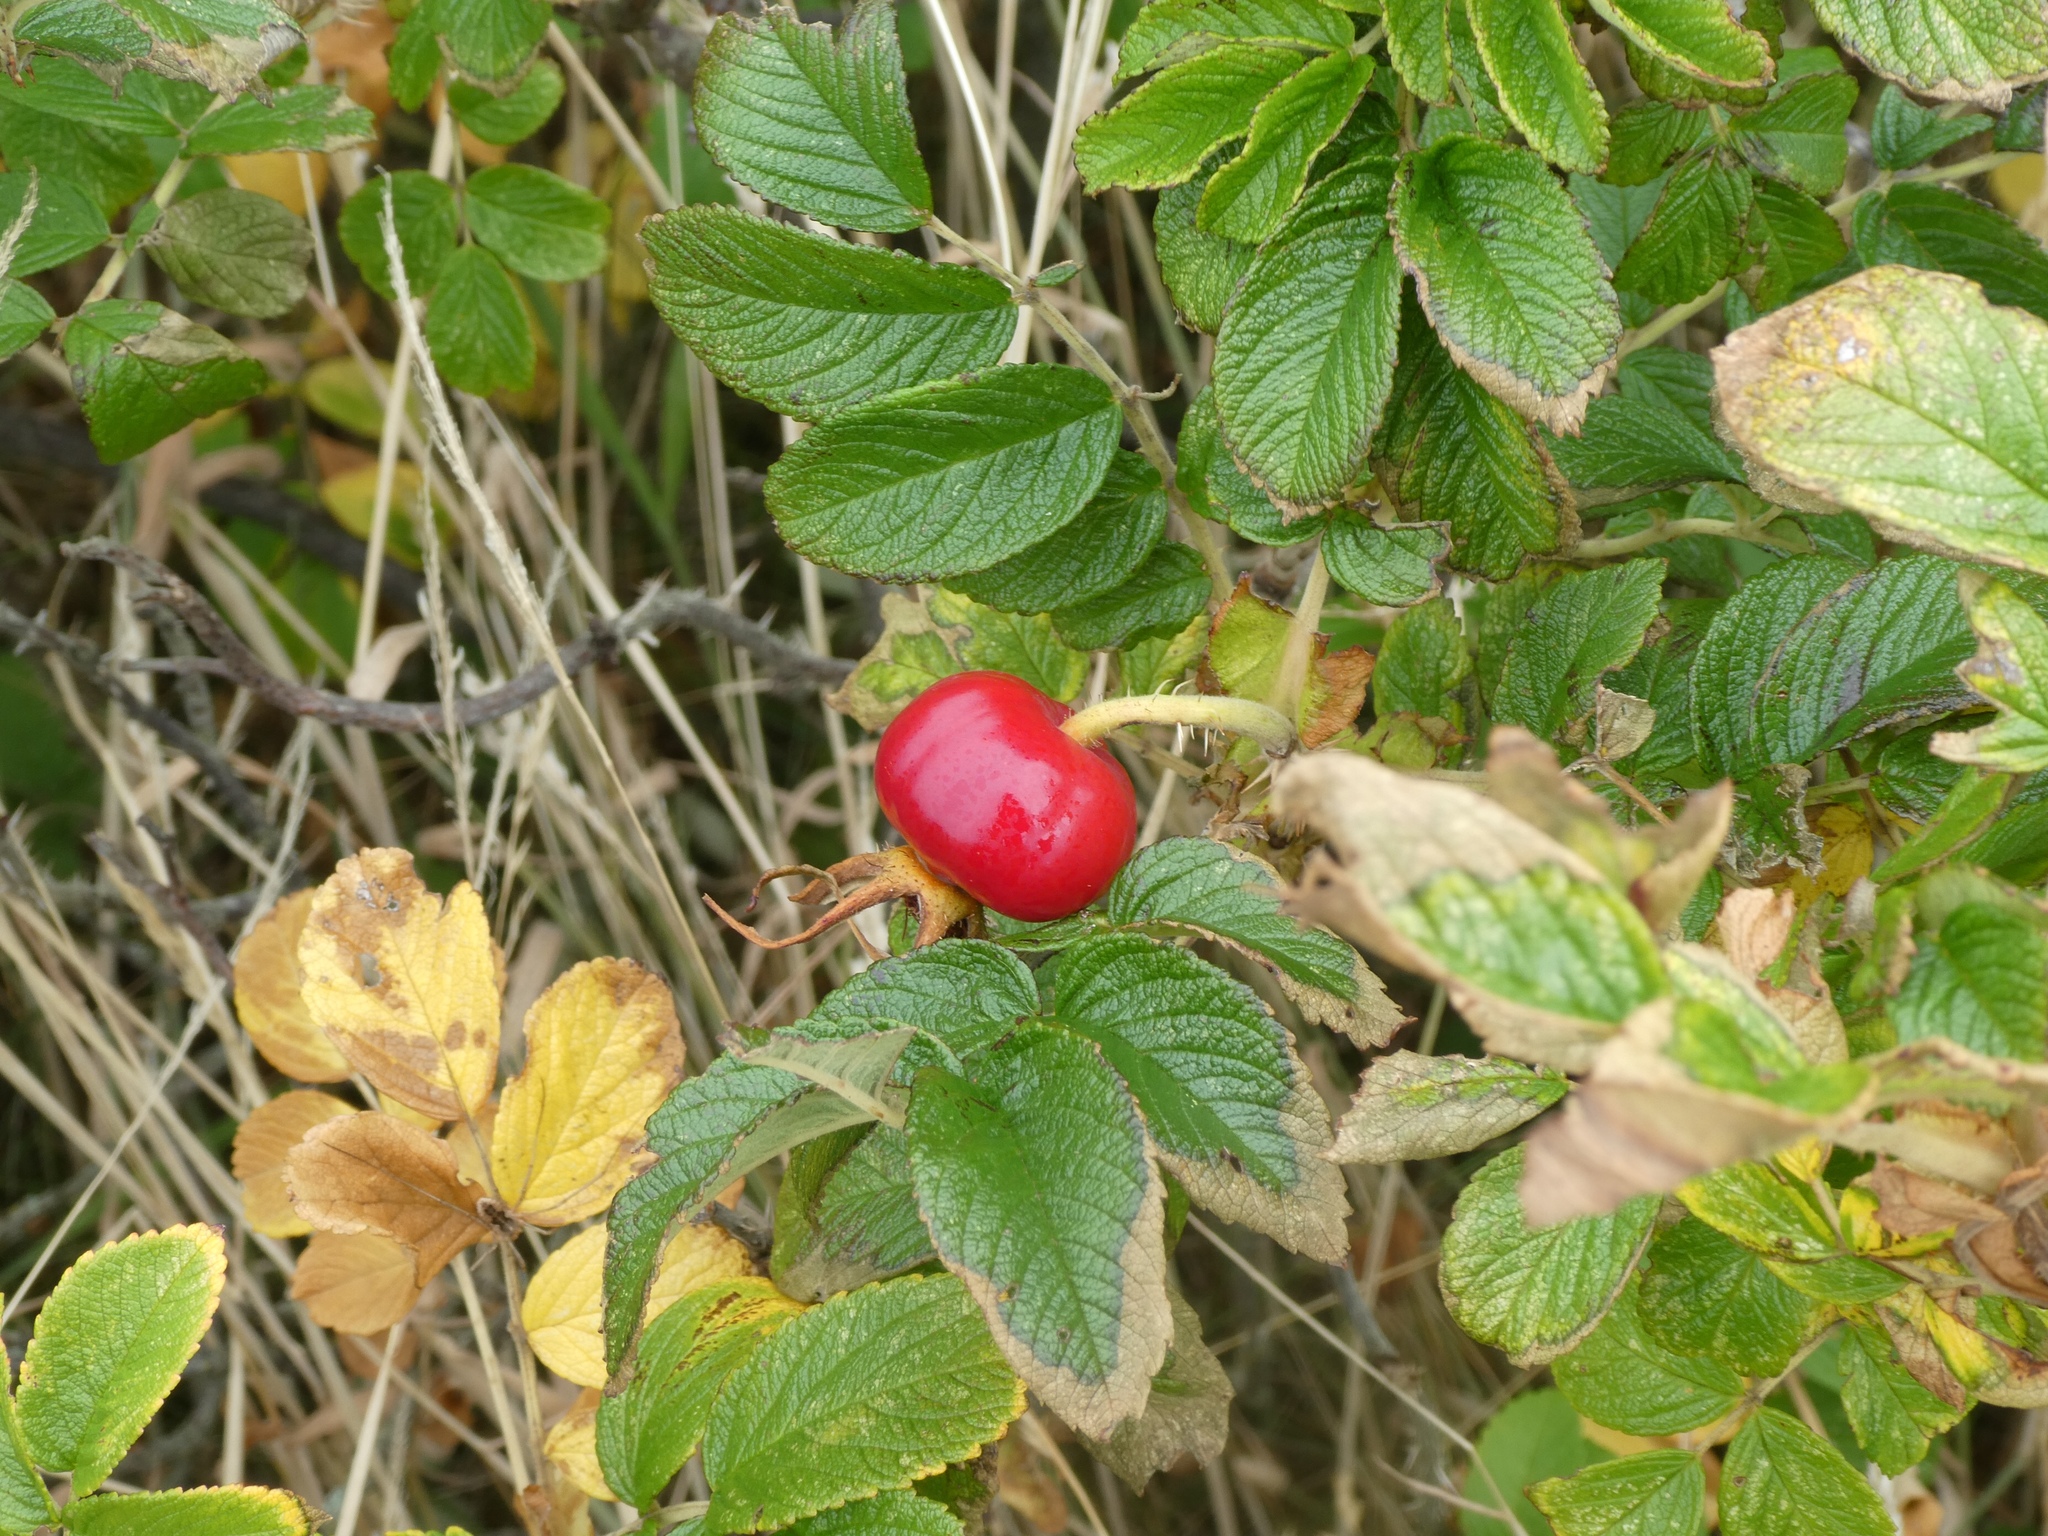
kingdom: Plantae
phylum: Tracheophyta
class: Magnoliopsida
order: Rosales
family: Rosaceae
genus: Rosa
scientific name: Rosa rugosa
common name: Japanese rose
